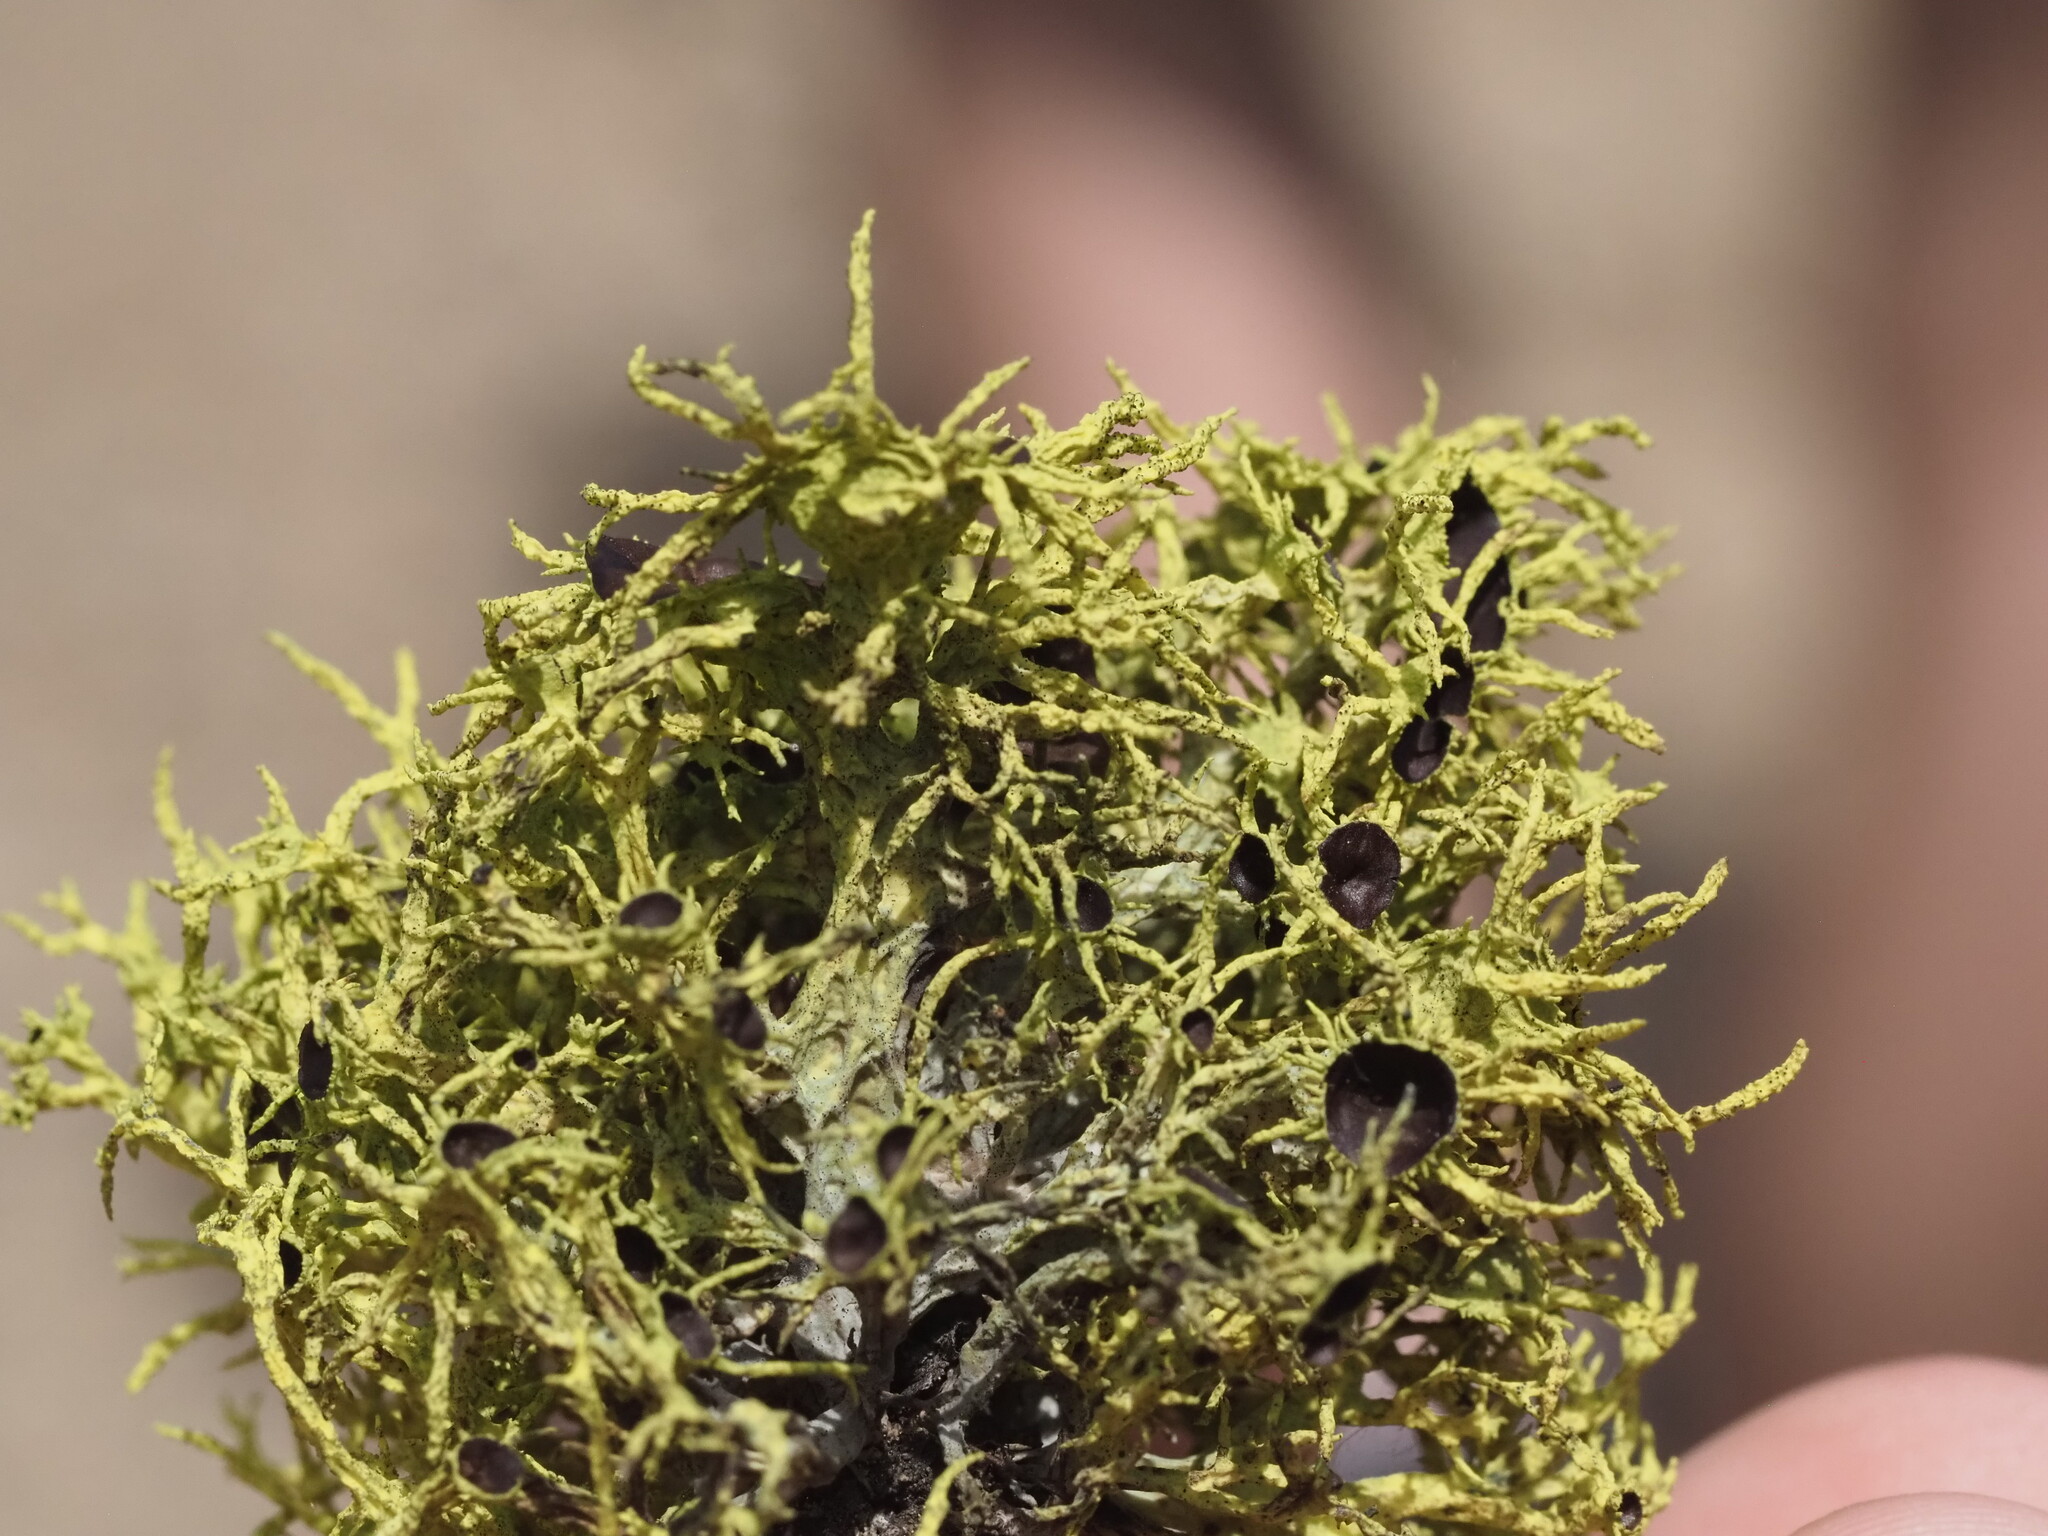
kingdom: Fungi
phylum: Ascomycota
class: Lecanoromycetes
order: Lecanorales
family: Parmeliaceae
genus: Letharia
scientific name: Letharia columbiana
